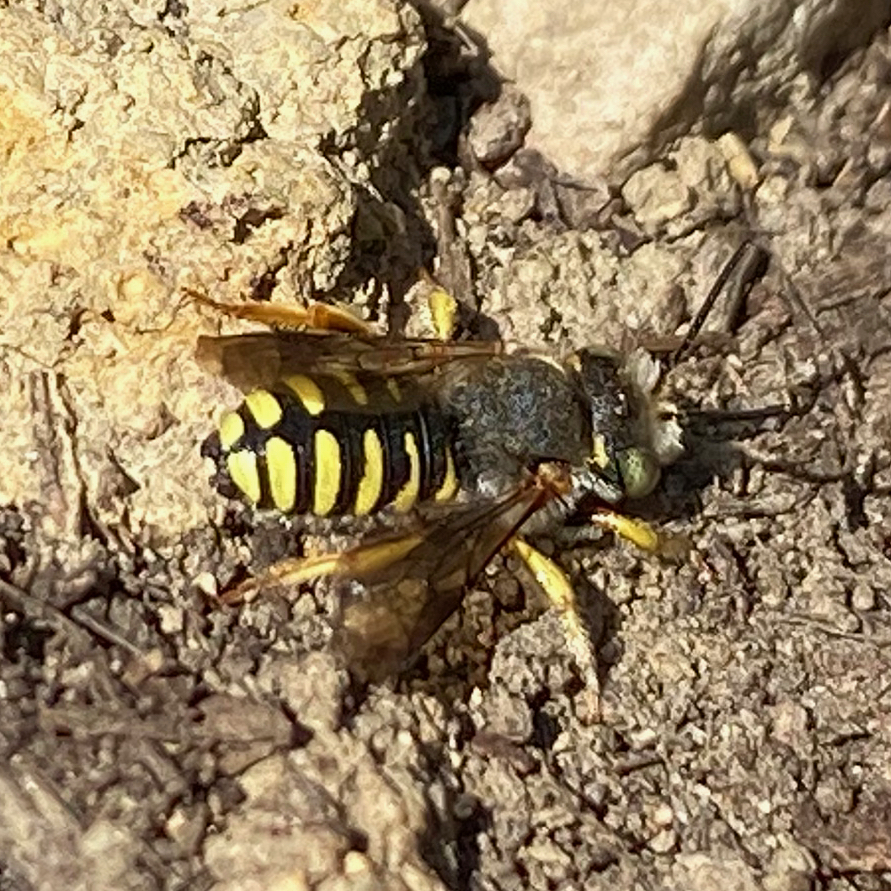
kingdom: Animalia
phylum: Arthropoda
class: Insecta
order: Hymenoptera
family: Megachilidae
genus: Anthidium
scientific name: Anthidium oblongatum
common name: Oblong wool carder bee
